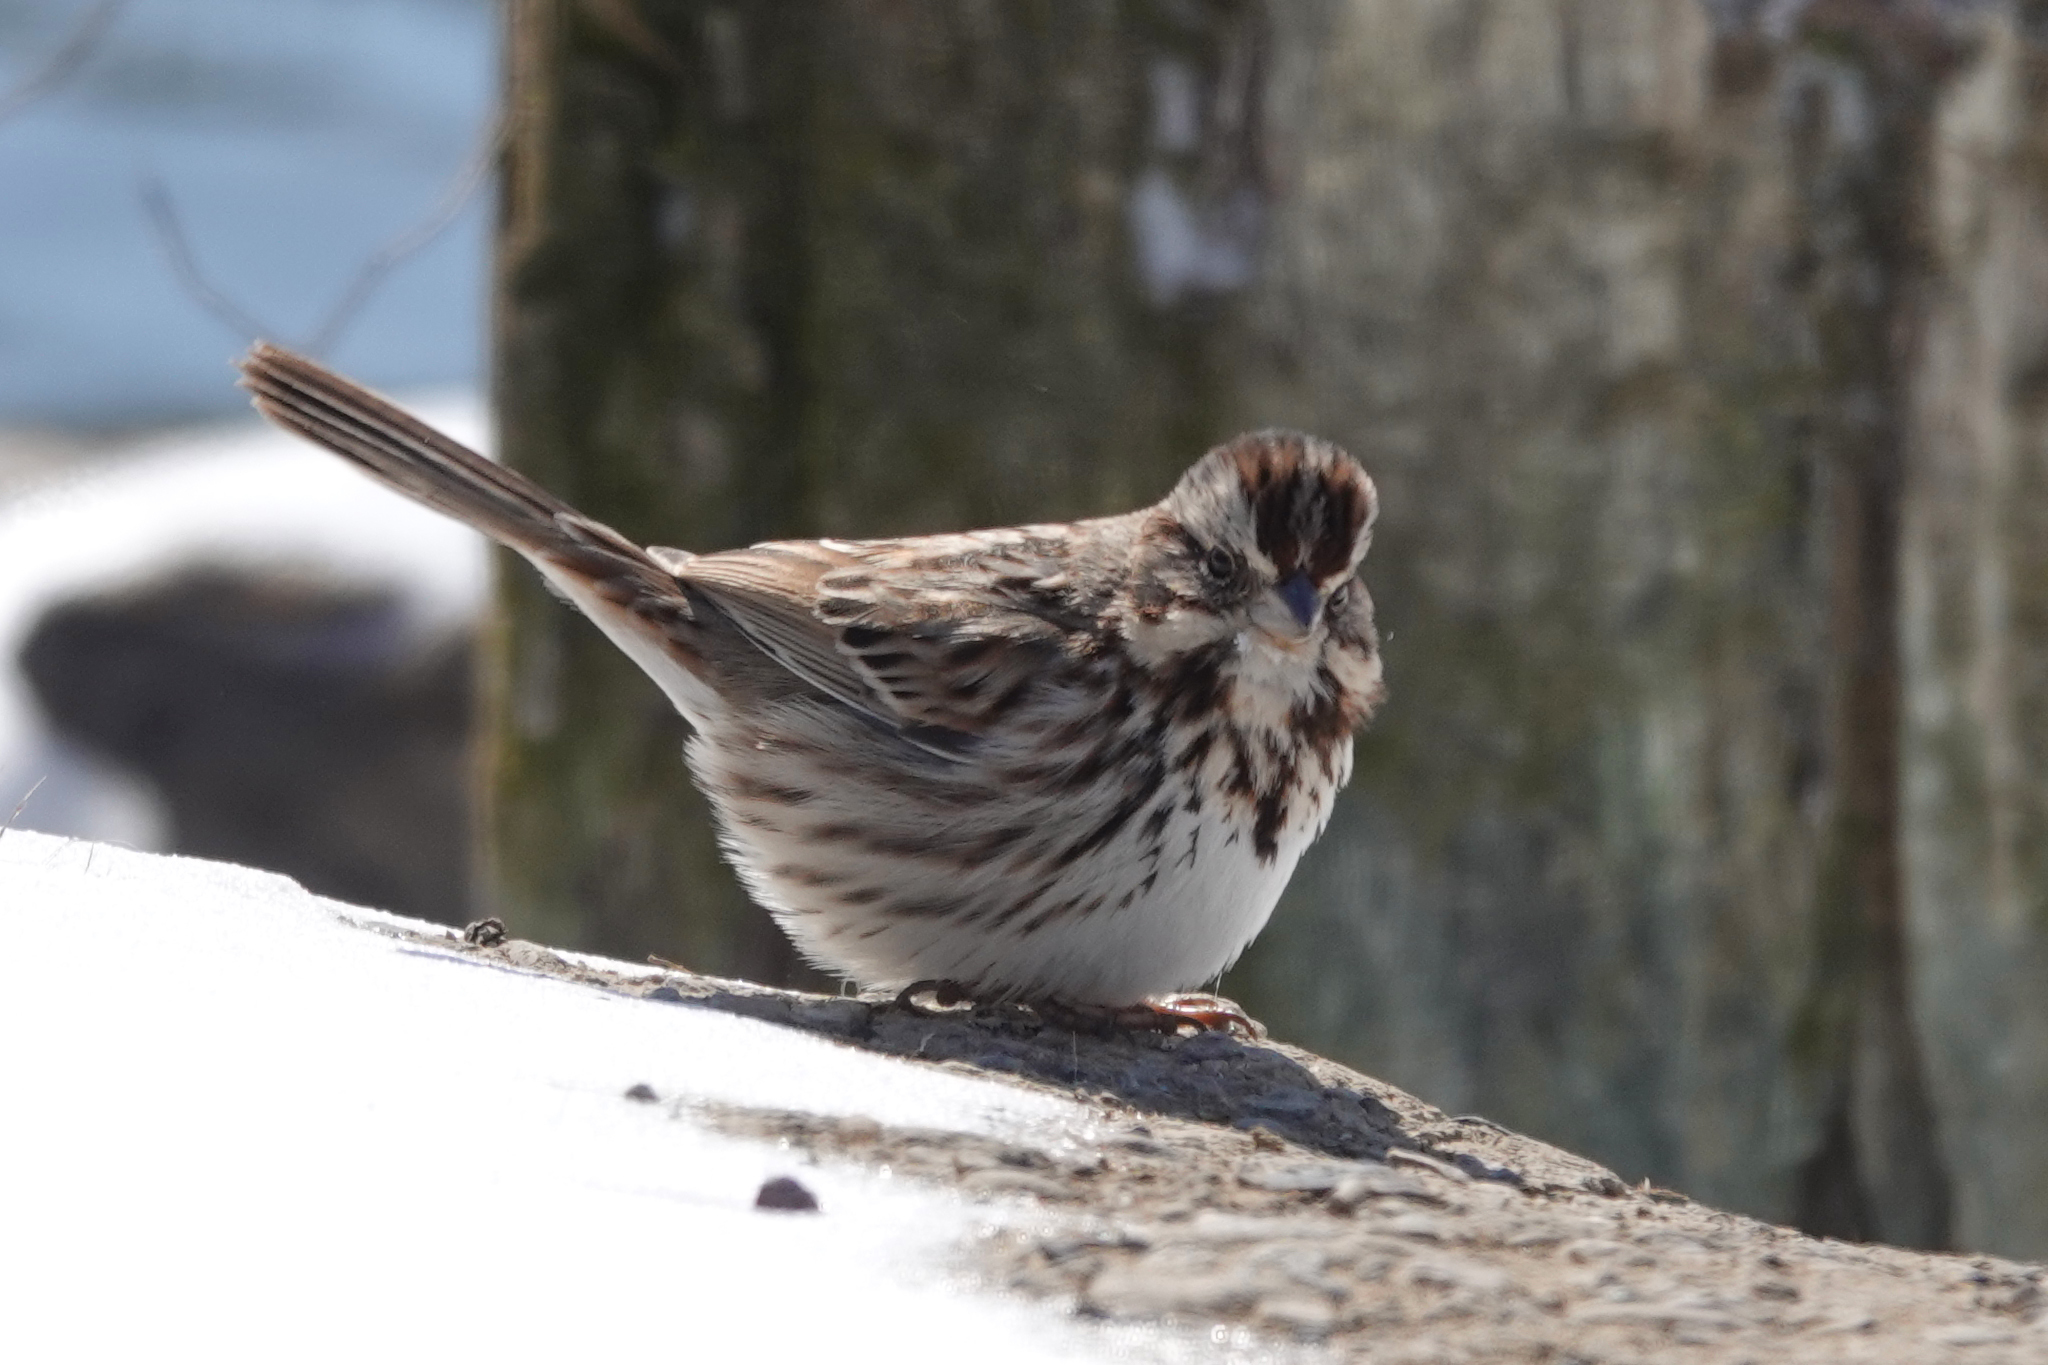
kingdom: Animalia
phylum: Chordata
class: Aves
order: Passeriformes
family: Passerellidae
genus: Melospiza
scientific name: Melospiza melodia
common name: Song sparrow
